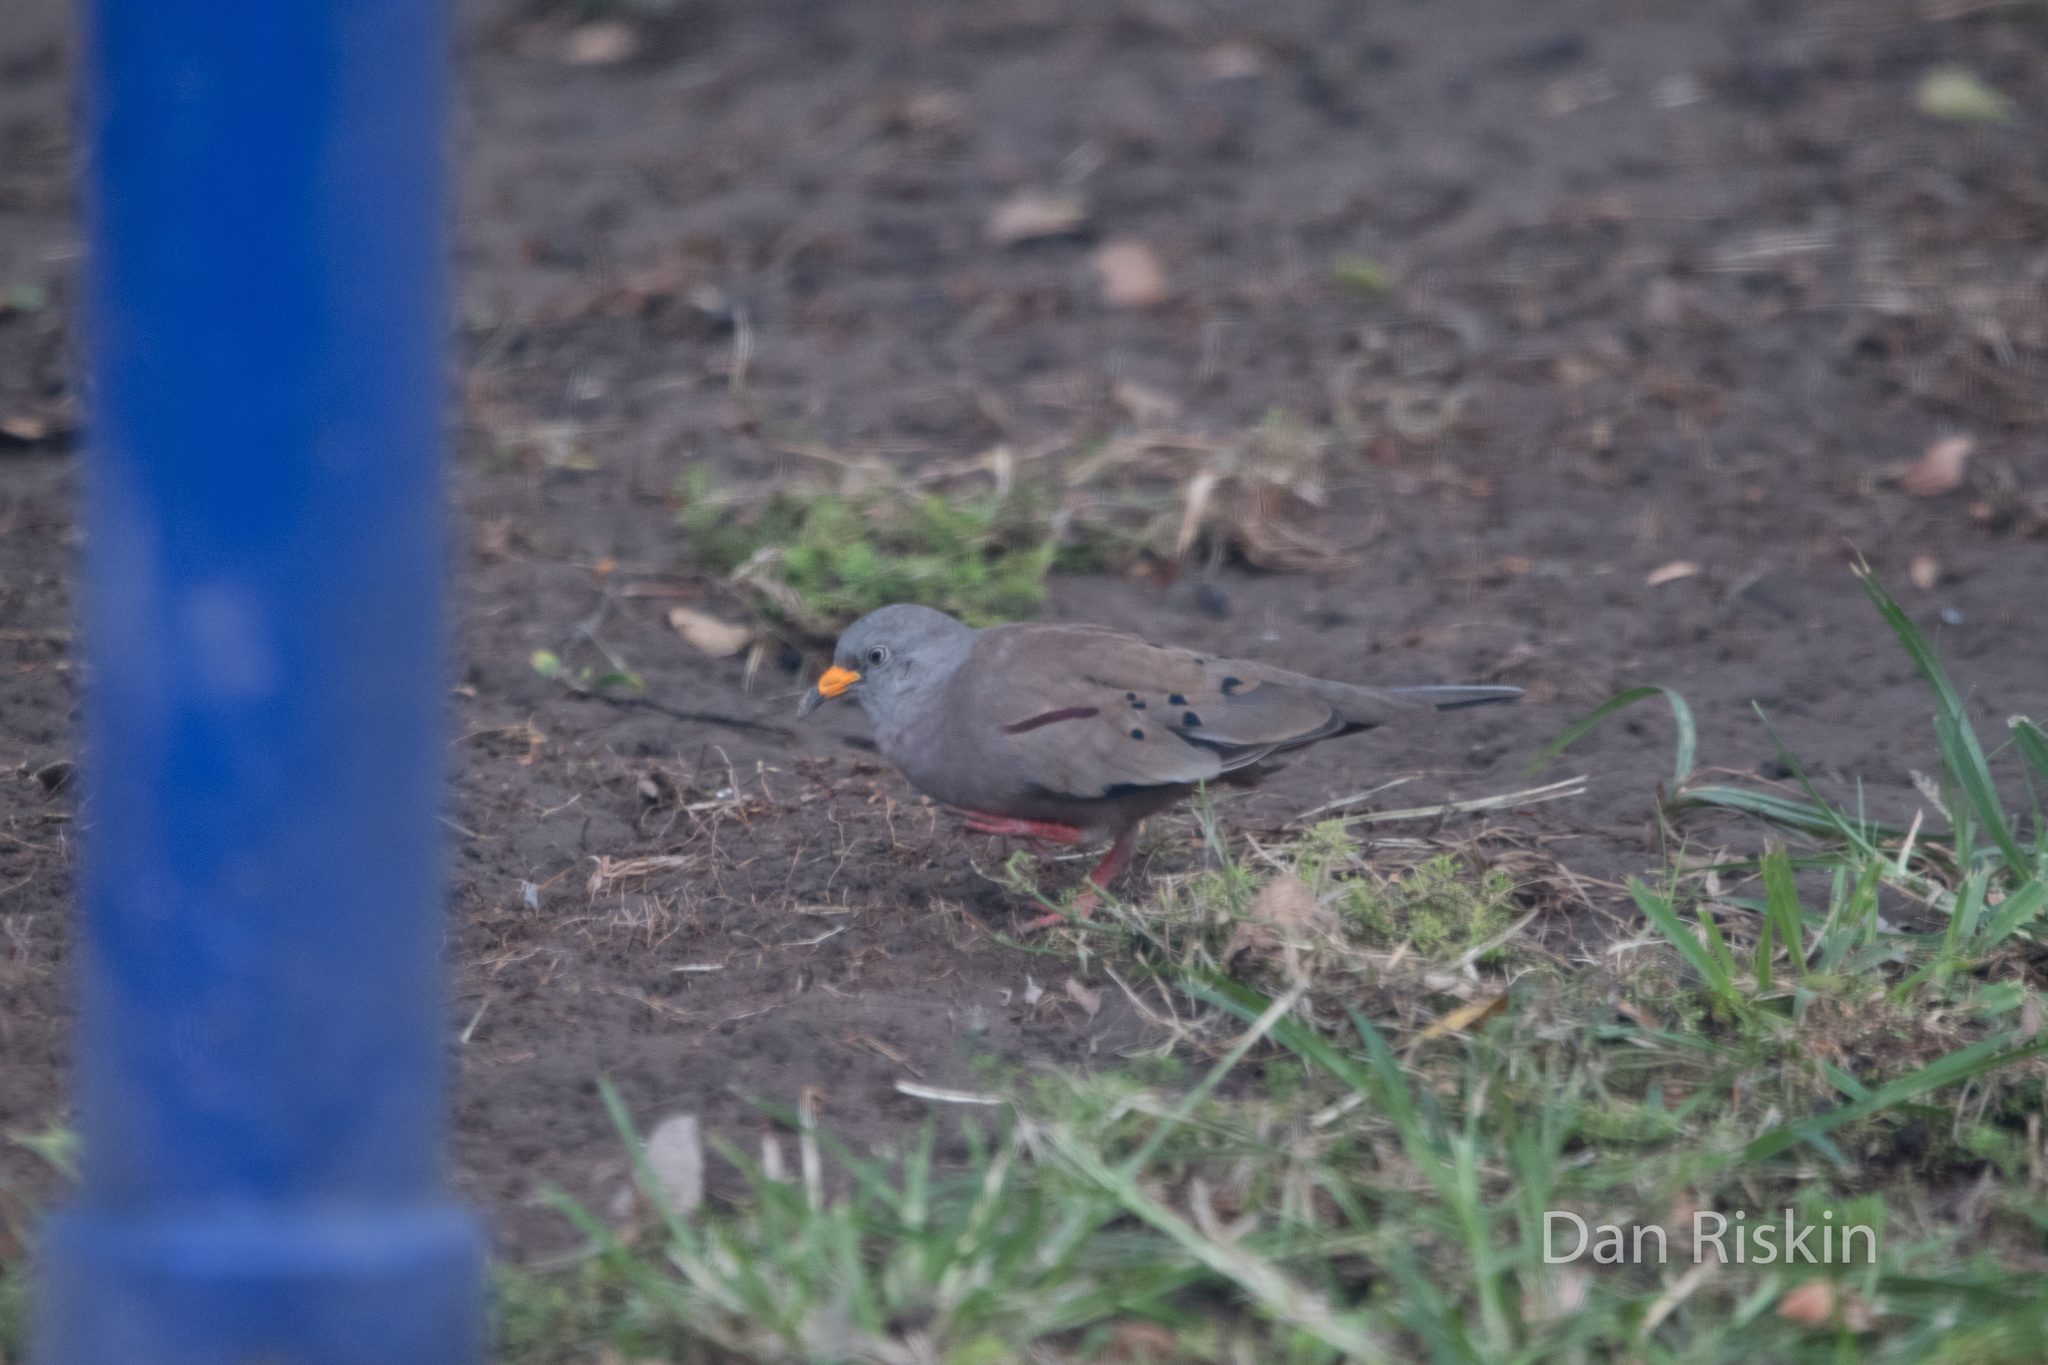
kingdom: Animalia
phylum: Chordata
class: Aves
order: Columbiformes
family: Columbidae
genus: Columbina
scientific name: Columbina cruziana
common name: Croaking ground dove
